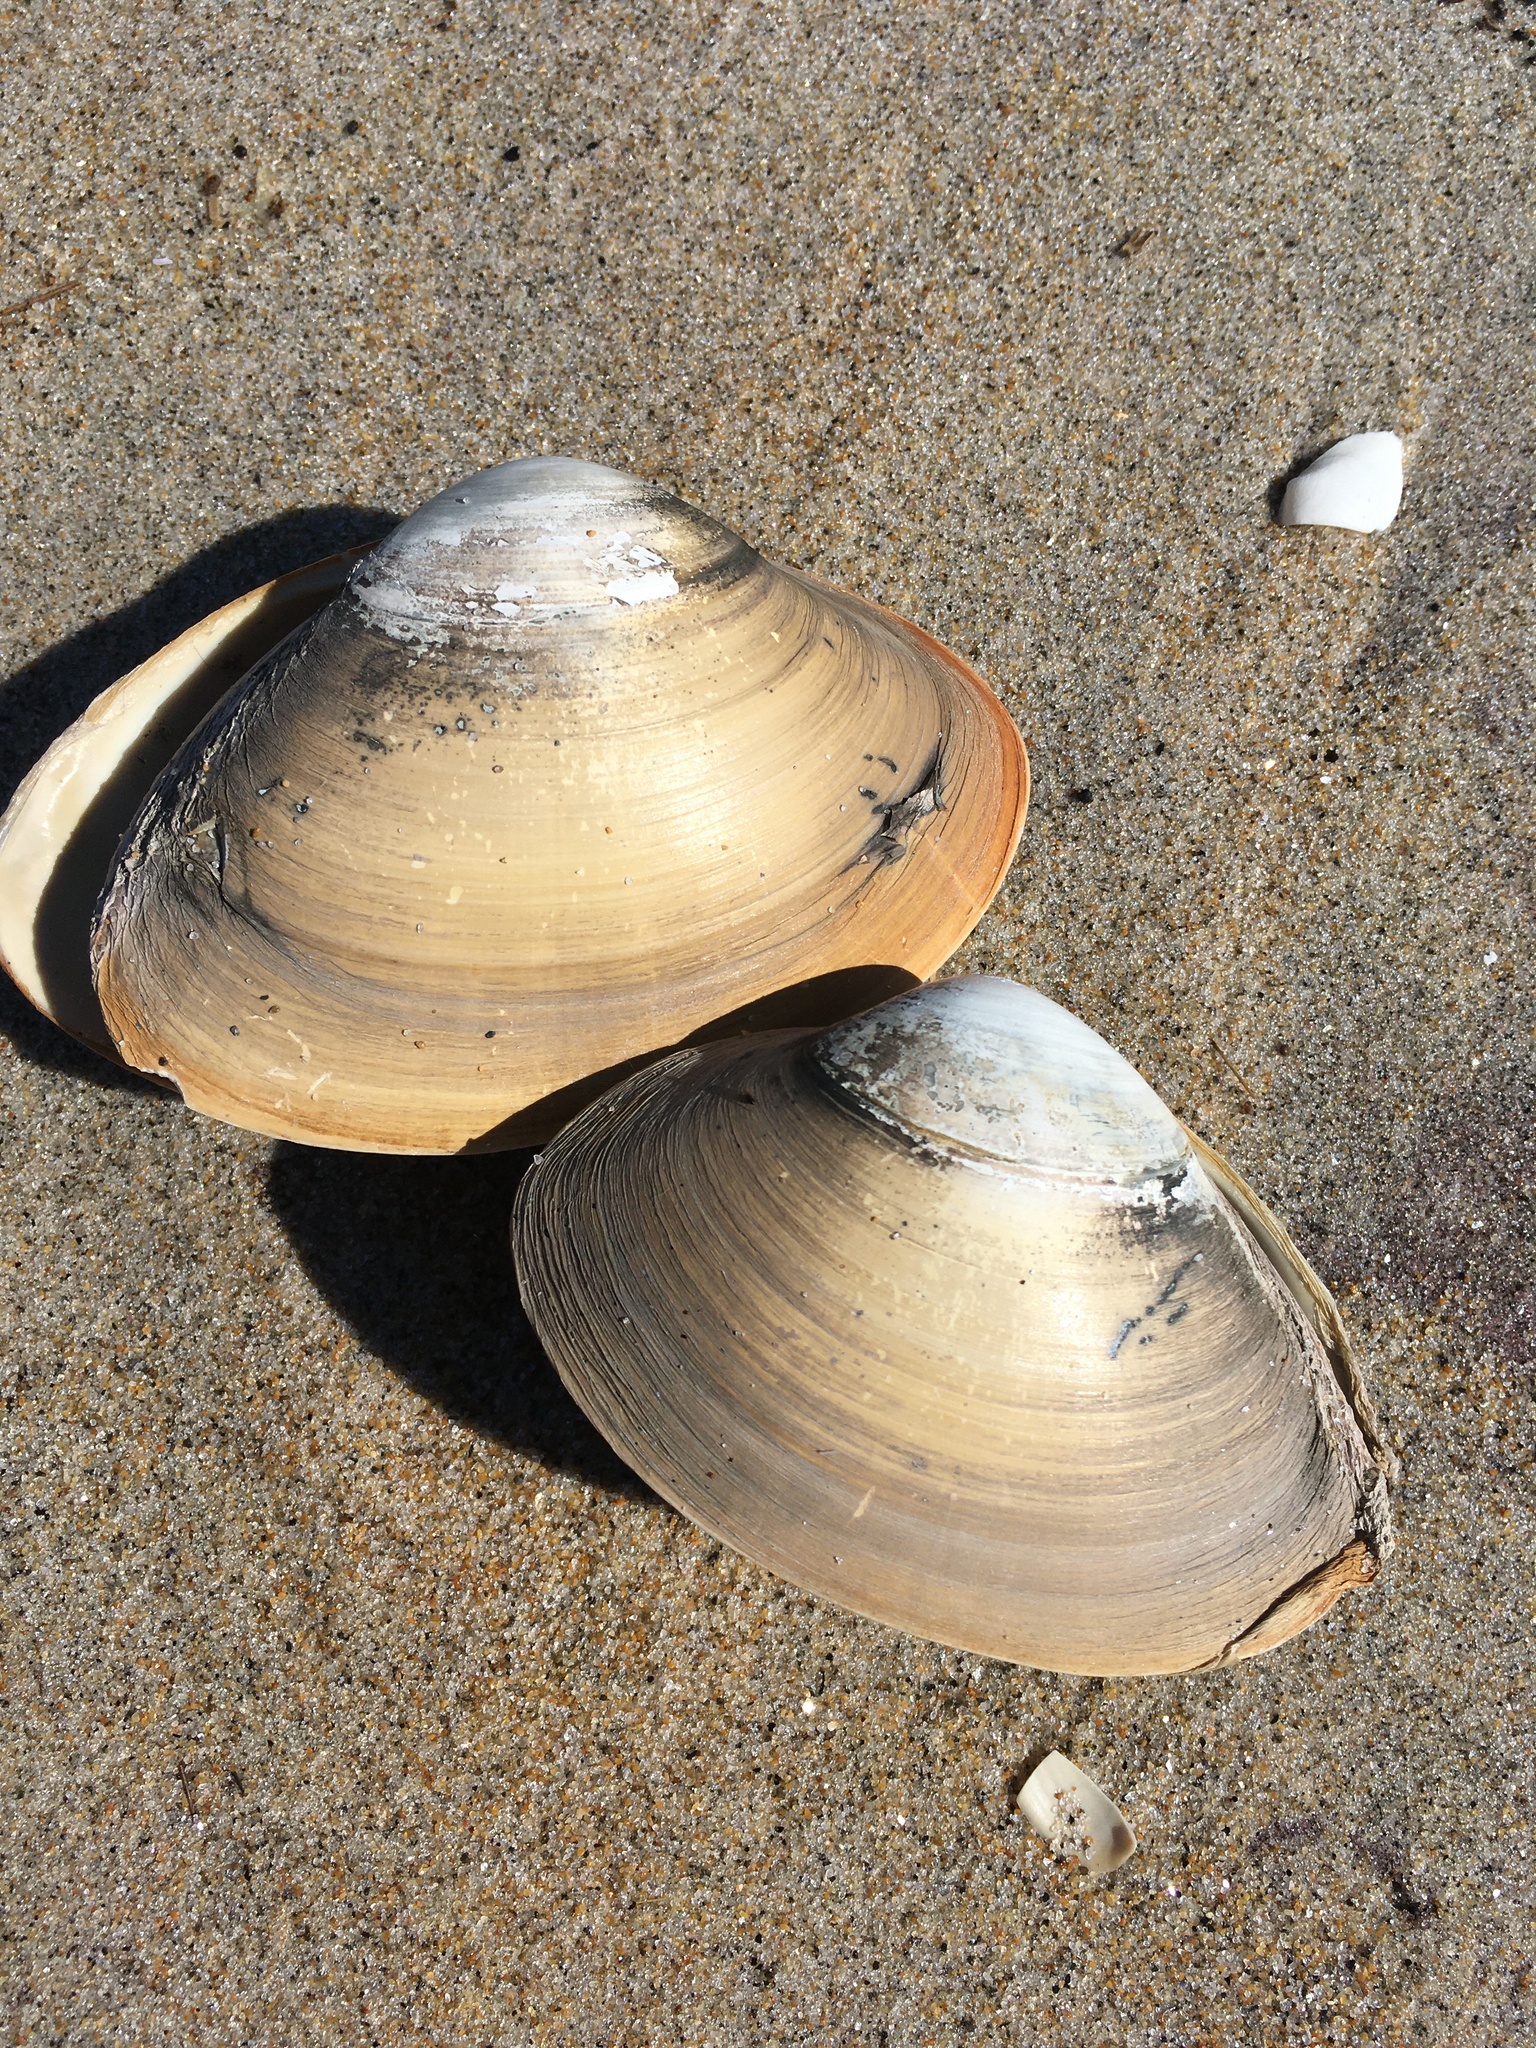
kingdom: Animalia
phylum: Mollusca
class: Bivalvia
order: Venerida
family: Mactridae
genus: Spisula
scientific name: Spisula solidissima
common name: Atlantic surf clam
